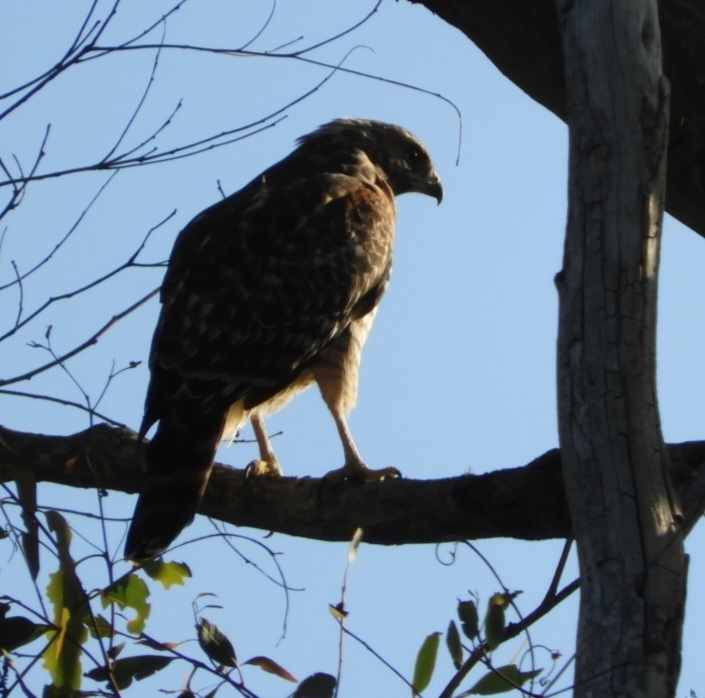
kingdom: Animalia
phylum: Chordata
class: Aves
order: Accipitriformes
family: Accipitridae
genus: Buteo
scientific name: Buteo lineatus
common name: Red-shouldered hawk
